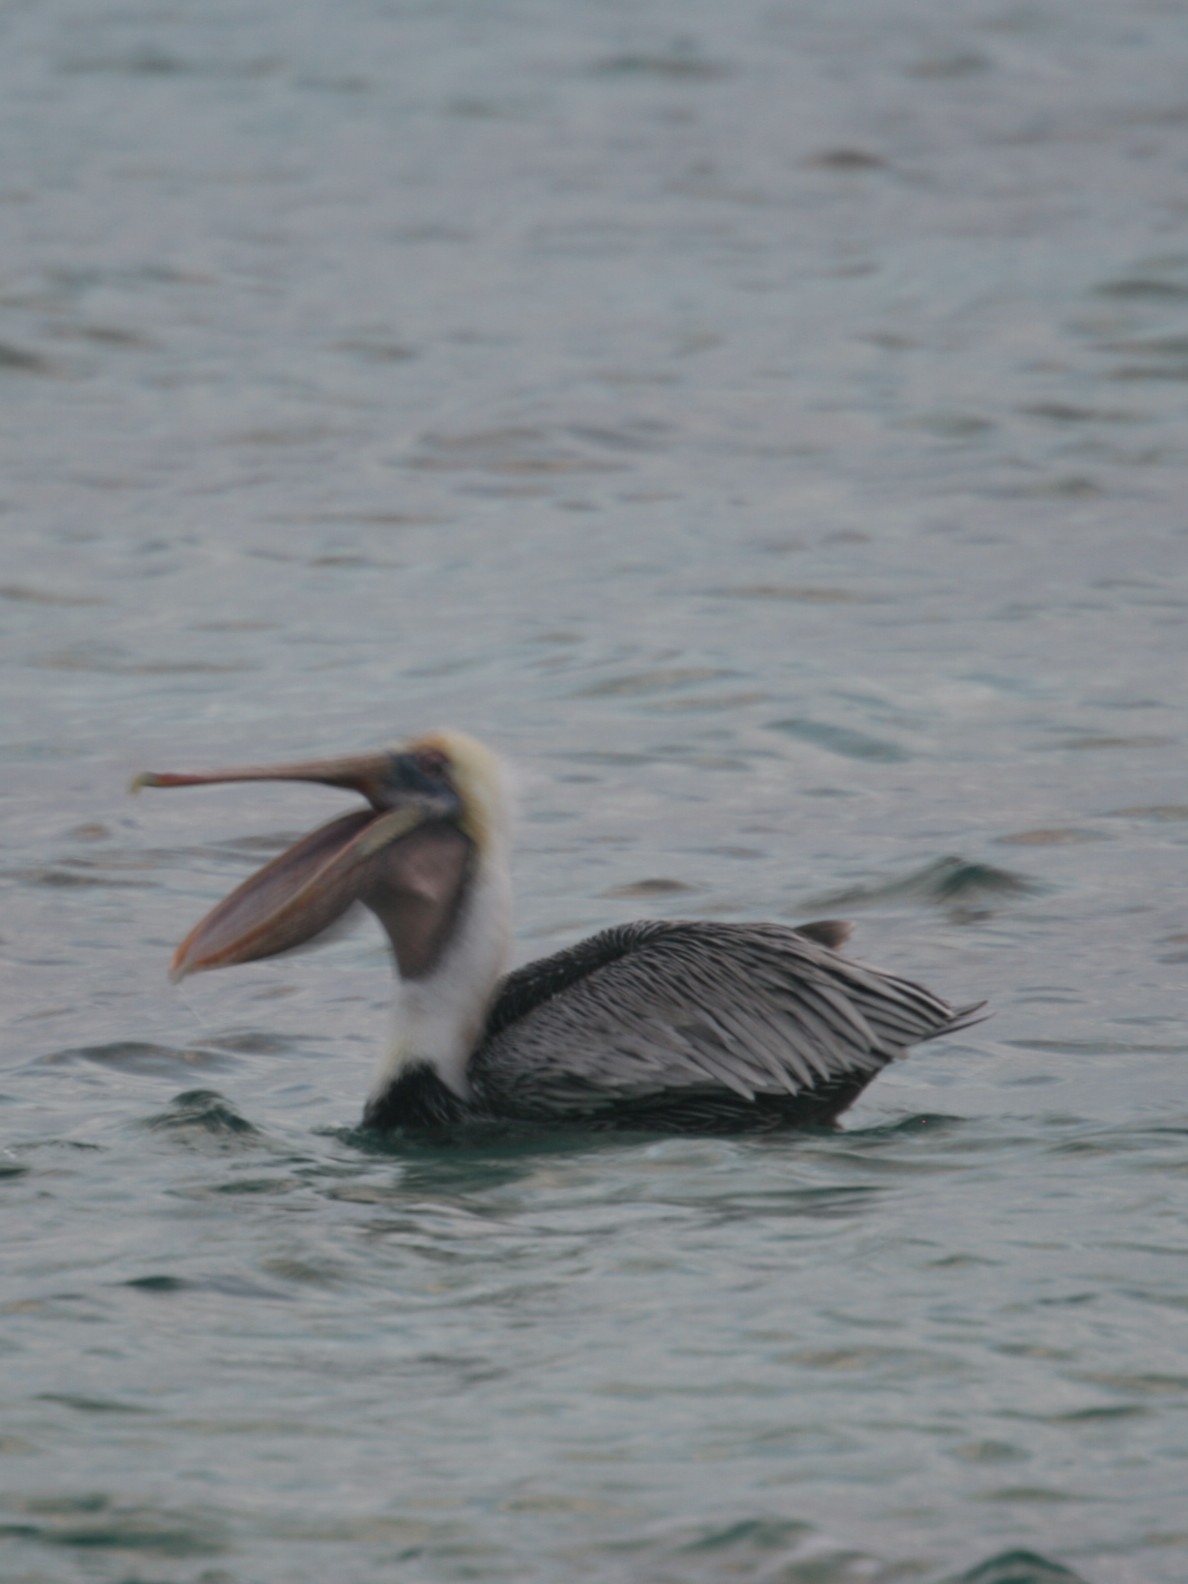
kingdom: Animalia
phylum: Chordata
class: Aves
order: Pelecaniformes
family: Pelecanidae
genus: Pelecanus
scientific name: Pelecanus occidentalis
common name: Brown pelican
